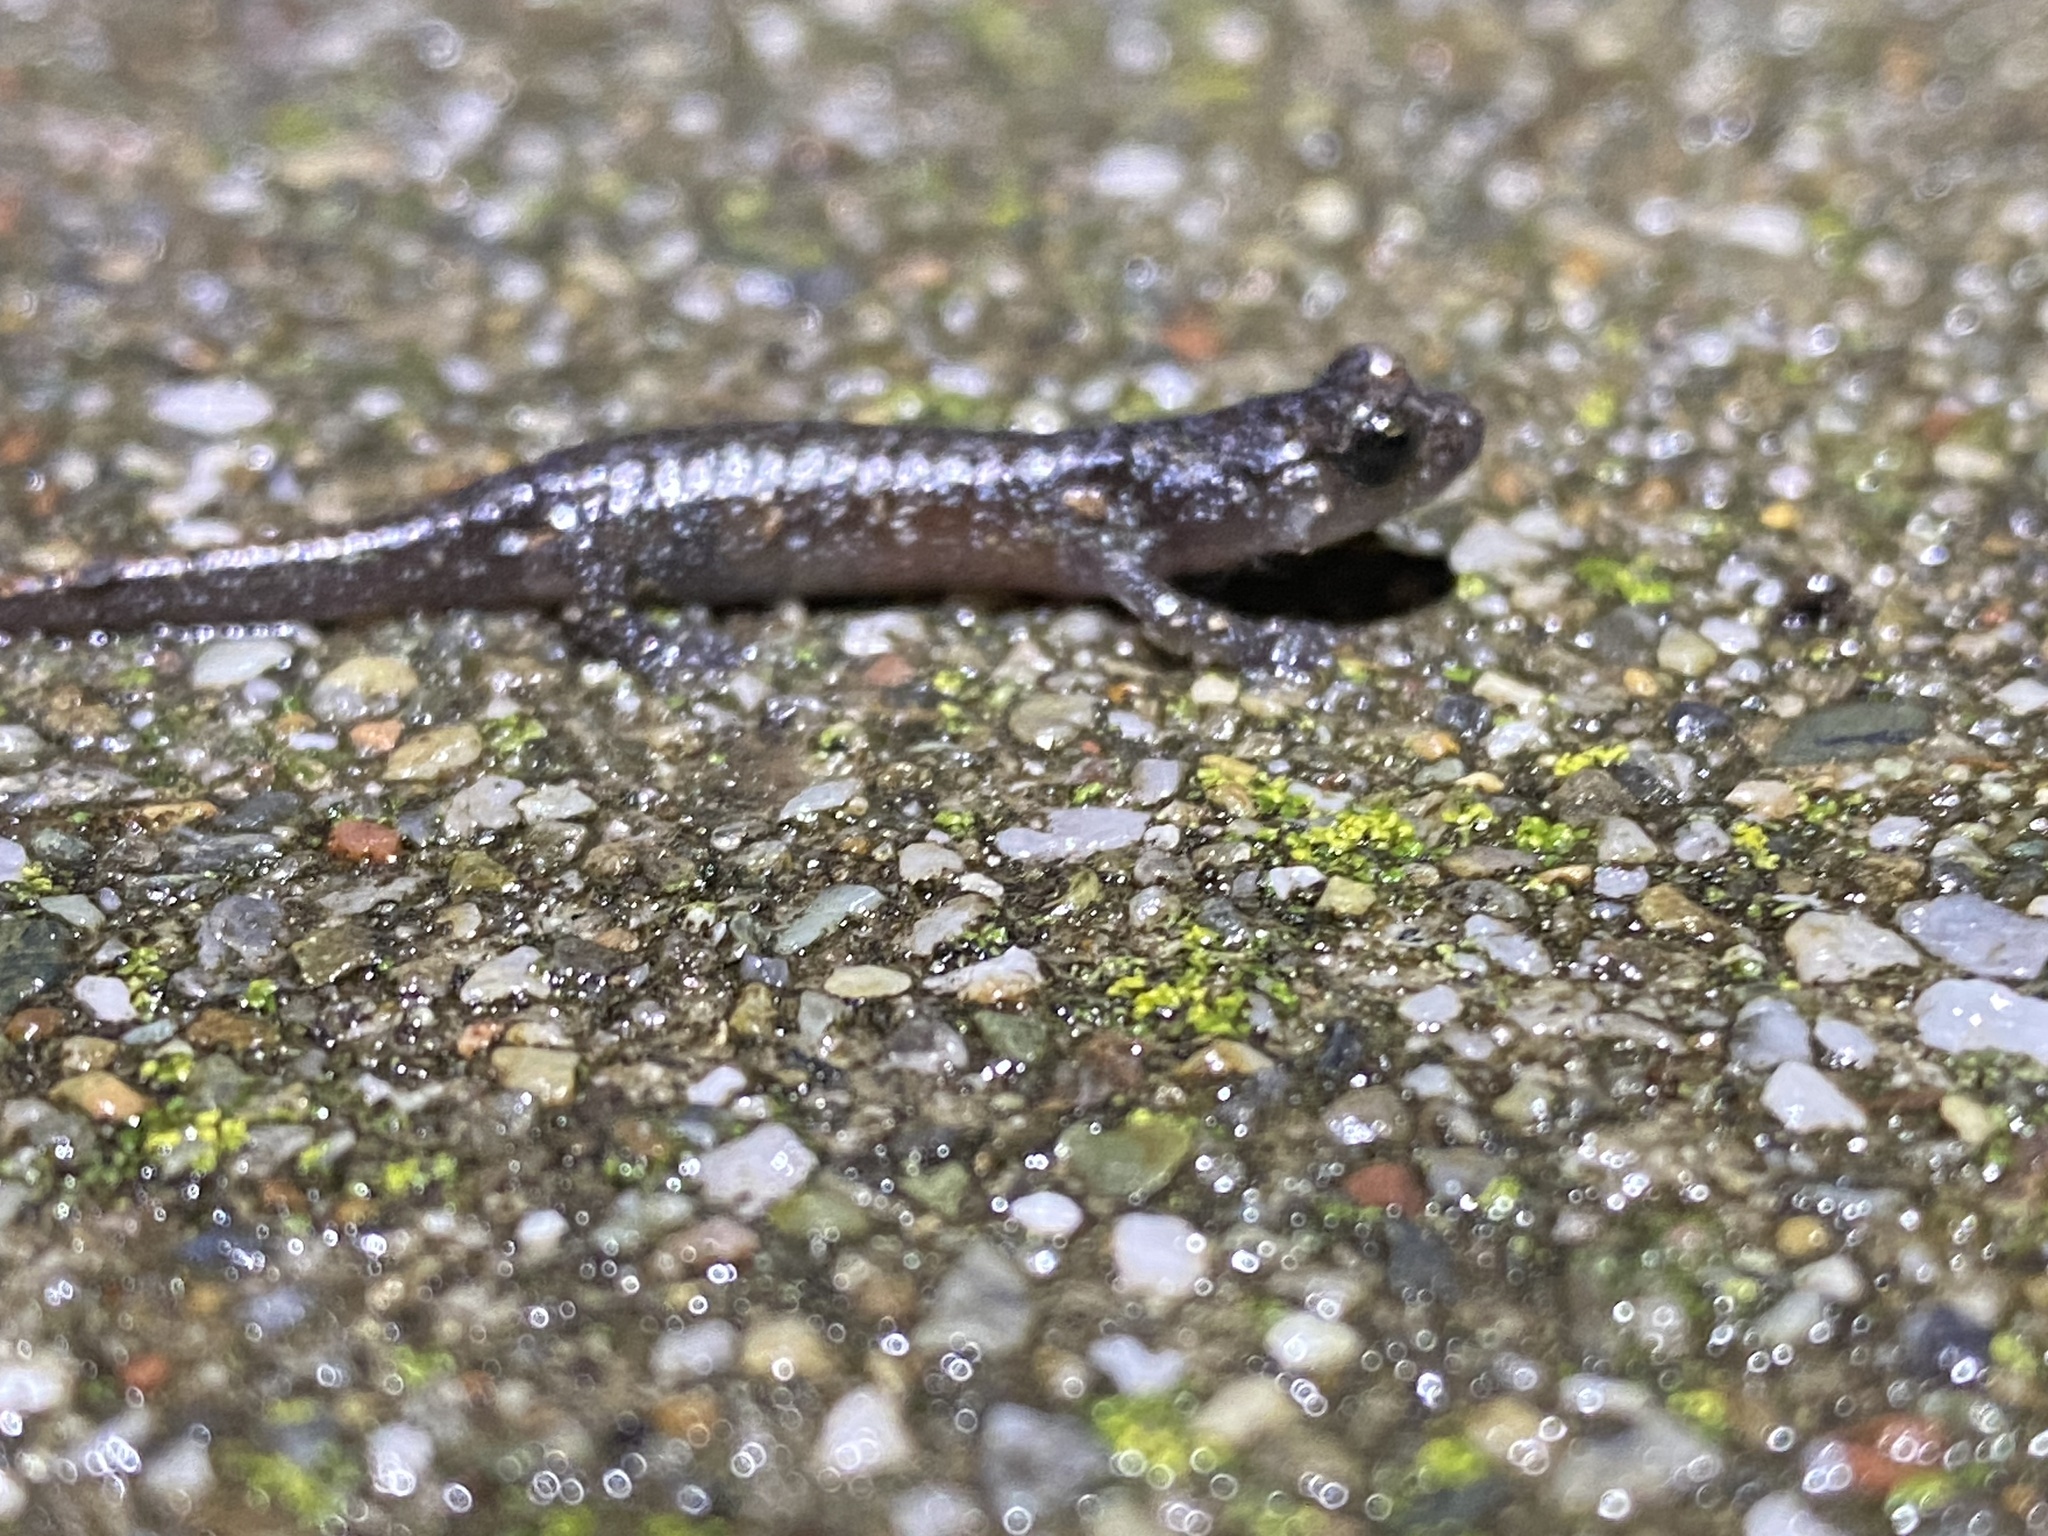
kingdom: Animalia
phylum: Chordata
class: Amphibia
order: Caudata
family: Plethodontidae
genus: Aneides
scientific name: Aneides lugubris
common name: Arboreal salamander
